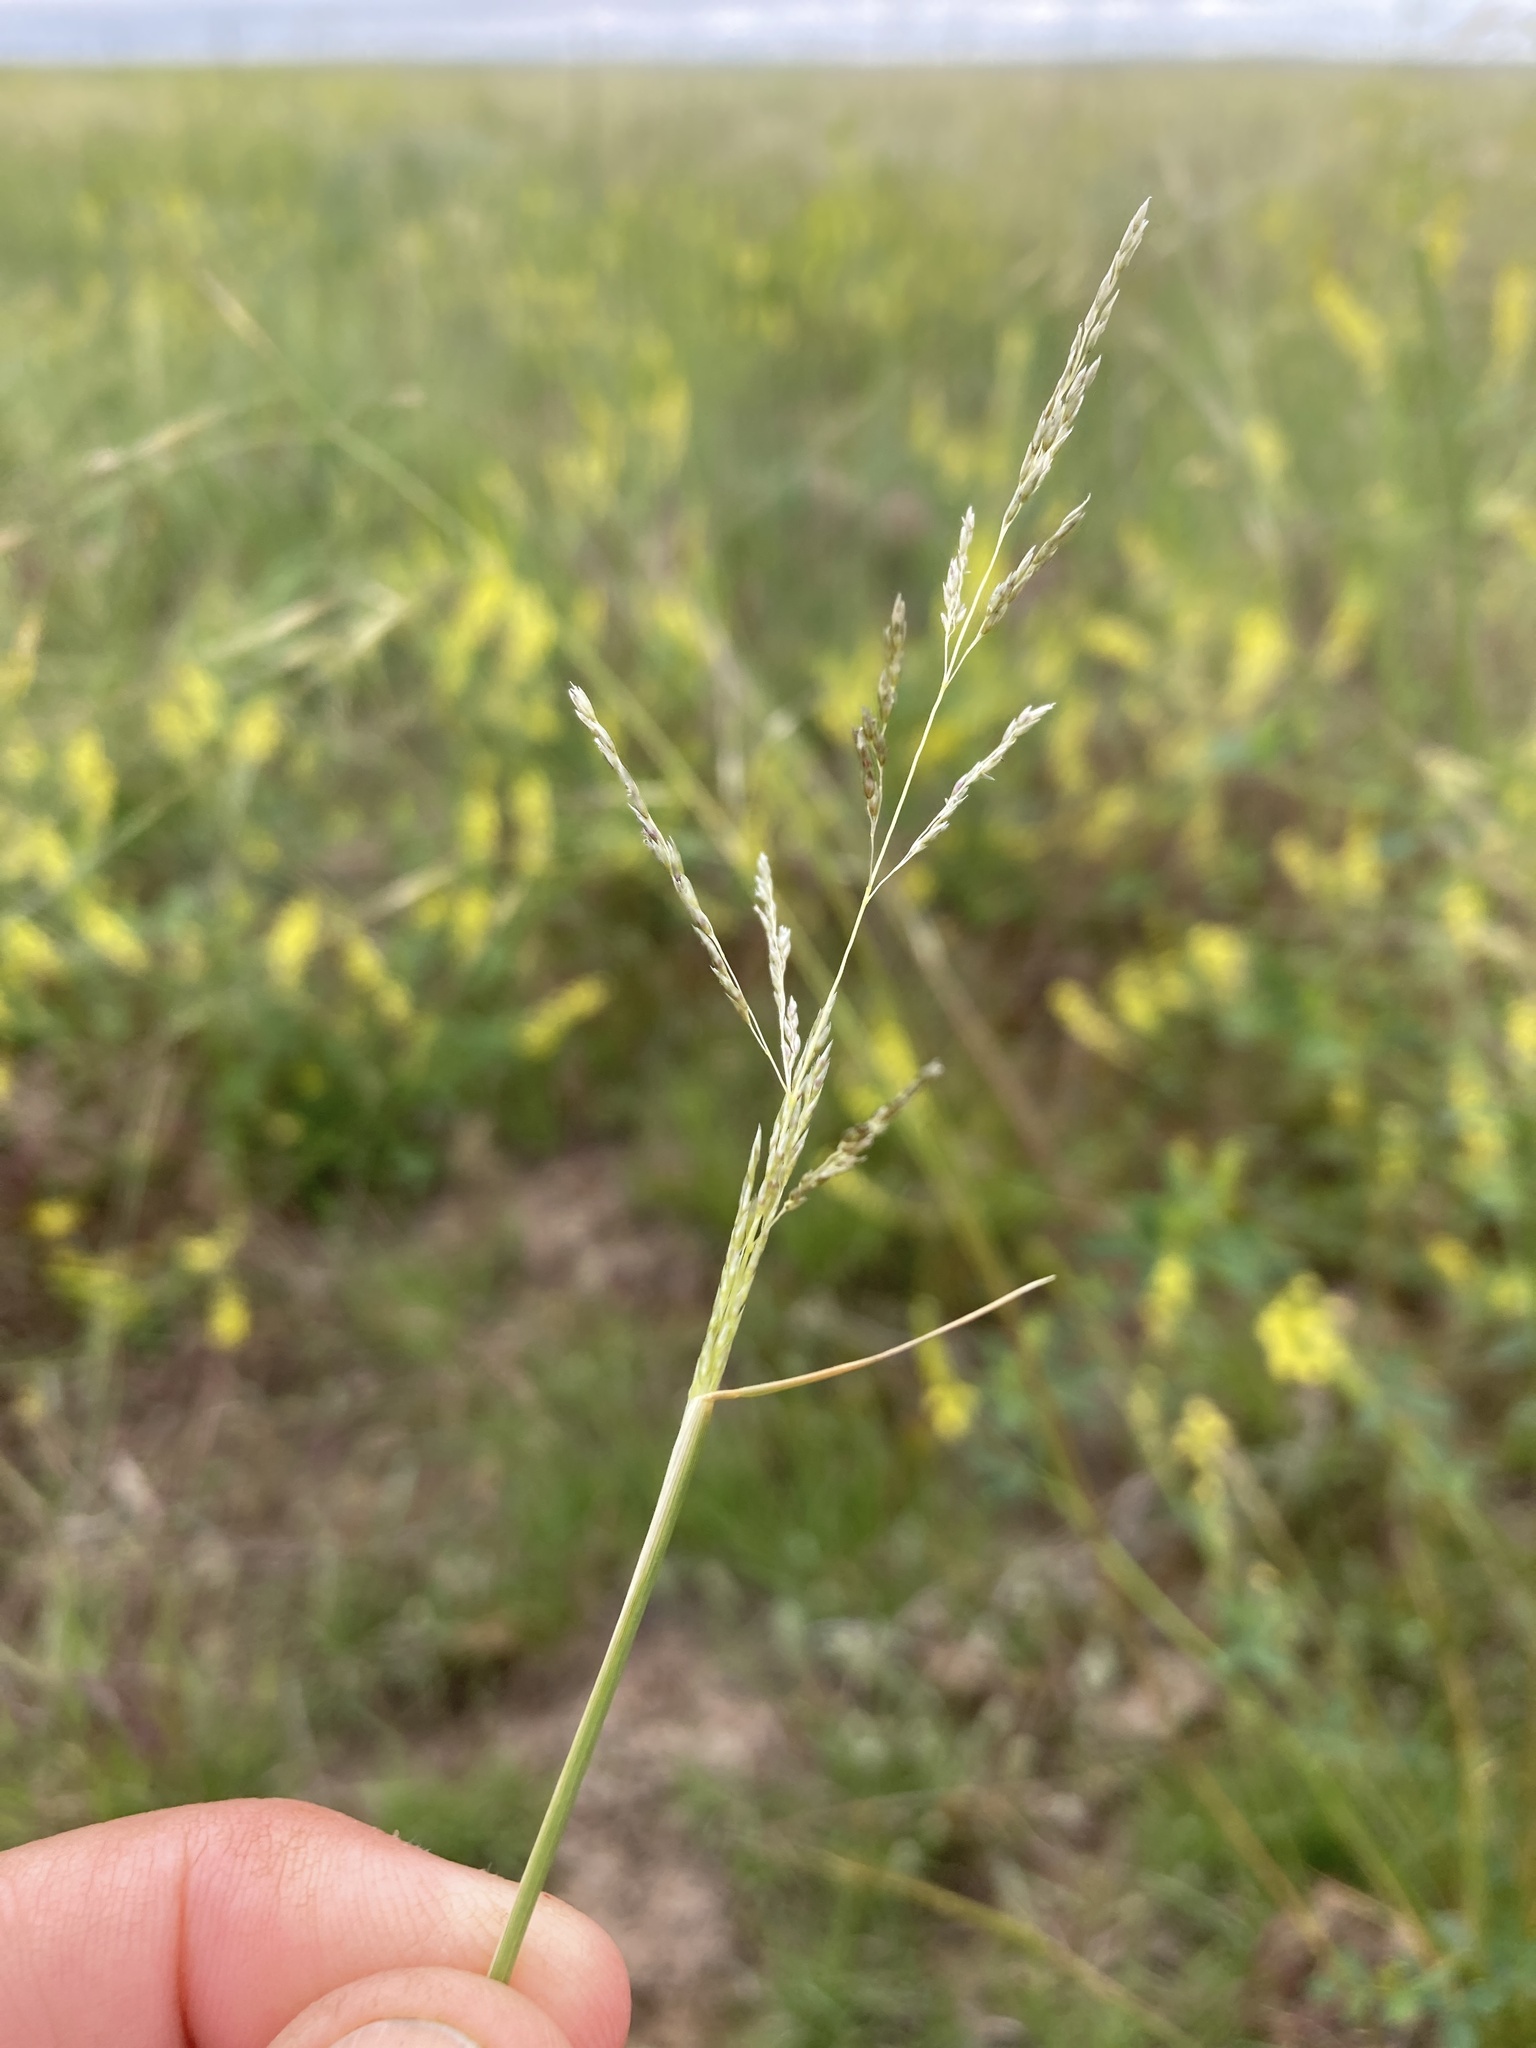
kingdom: Plantae
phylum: Tracheophyta
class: Liliopsida
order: Poales
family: Poaceae
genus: Sporobolus
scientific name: Sporobolus cryptandrus
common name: Sand dropseed
